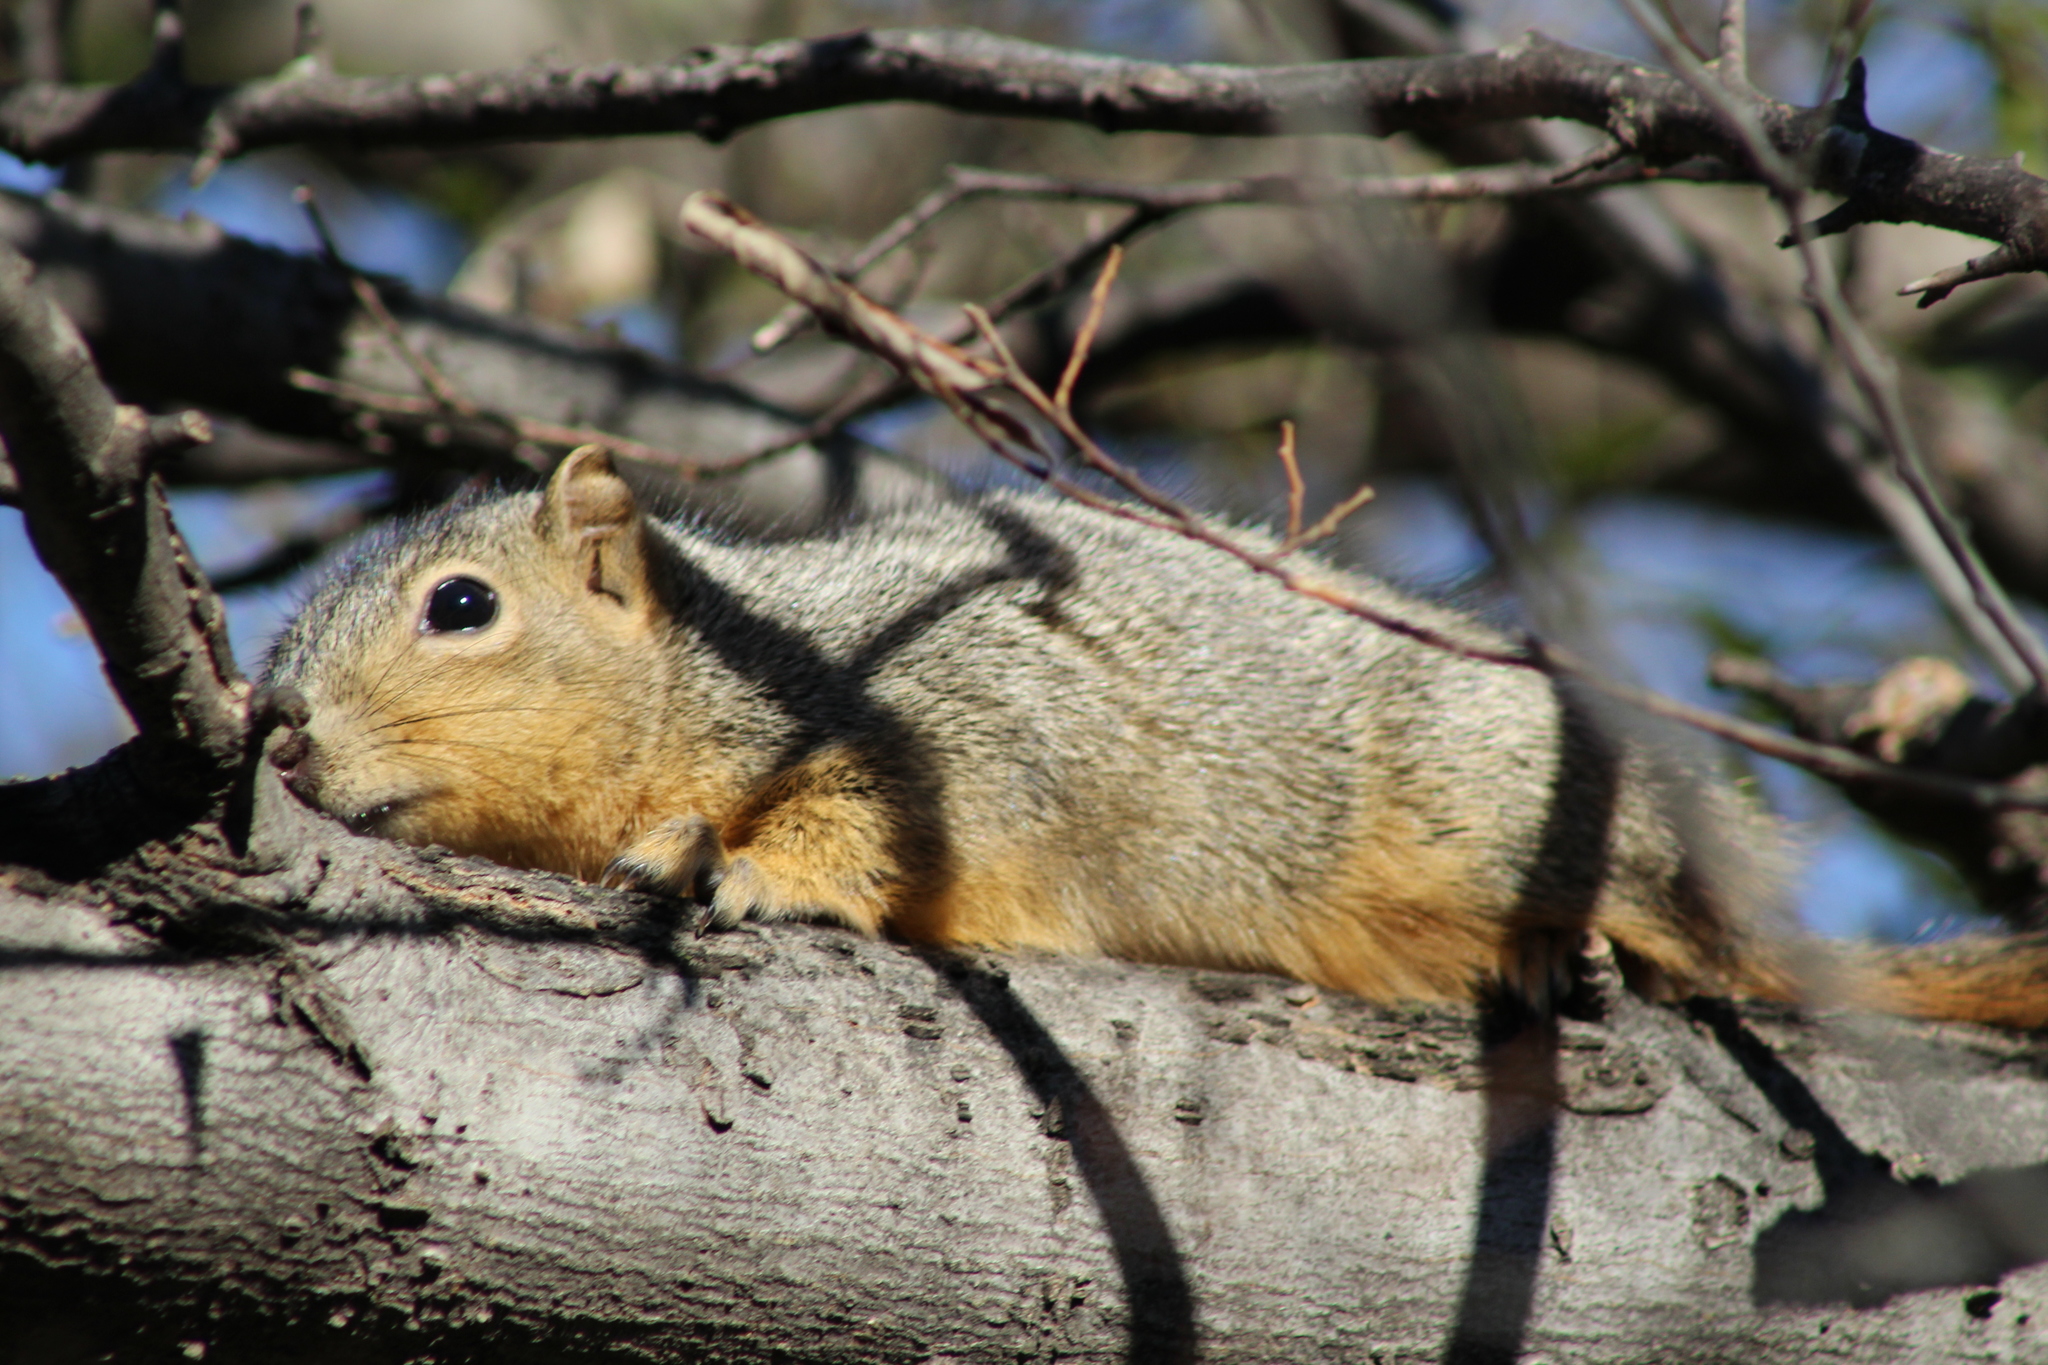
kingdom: Animalia
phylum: Chordata
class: Mammalia
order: Rodentia
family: Sciuridae
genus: Sciurus
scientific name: Sciurus niger
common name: Fox squirrel
